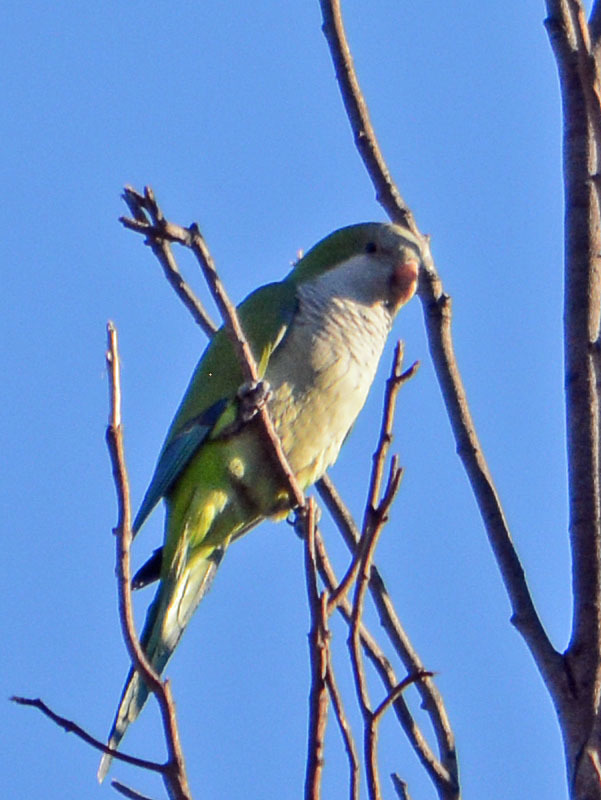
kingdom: Animalia
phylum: Chordata
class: Aves
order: Psittaciformes
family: Psittacidae
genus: Myiopsitta
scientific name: Myiopsitta monachus
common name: Monk parakeet
